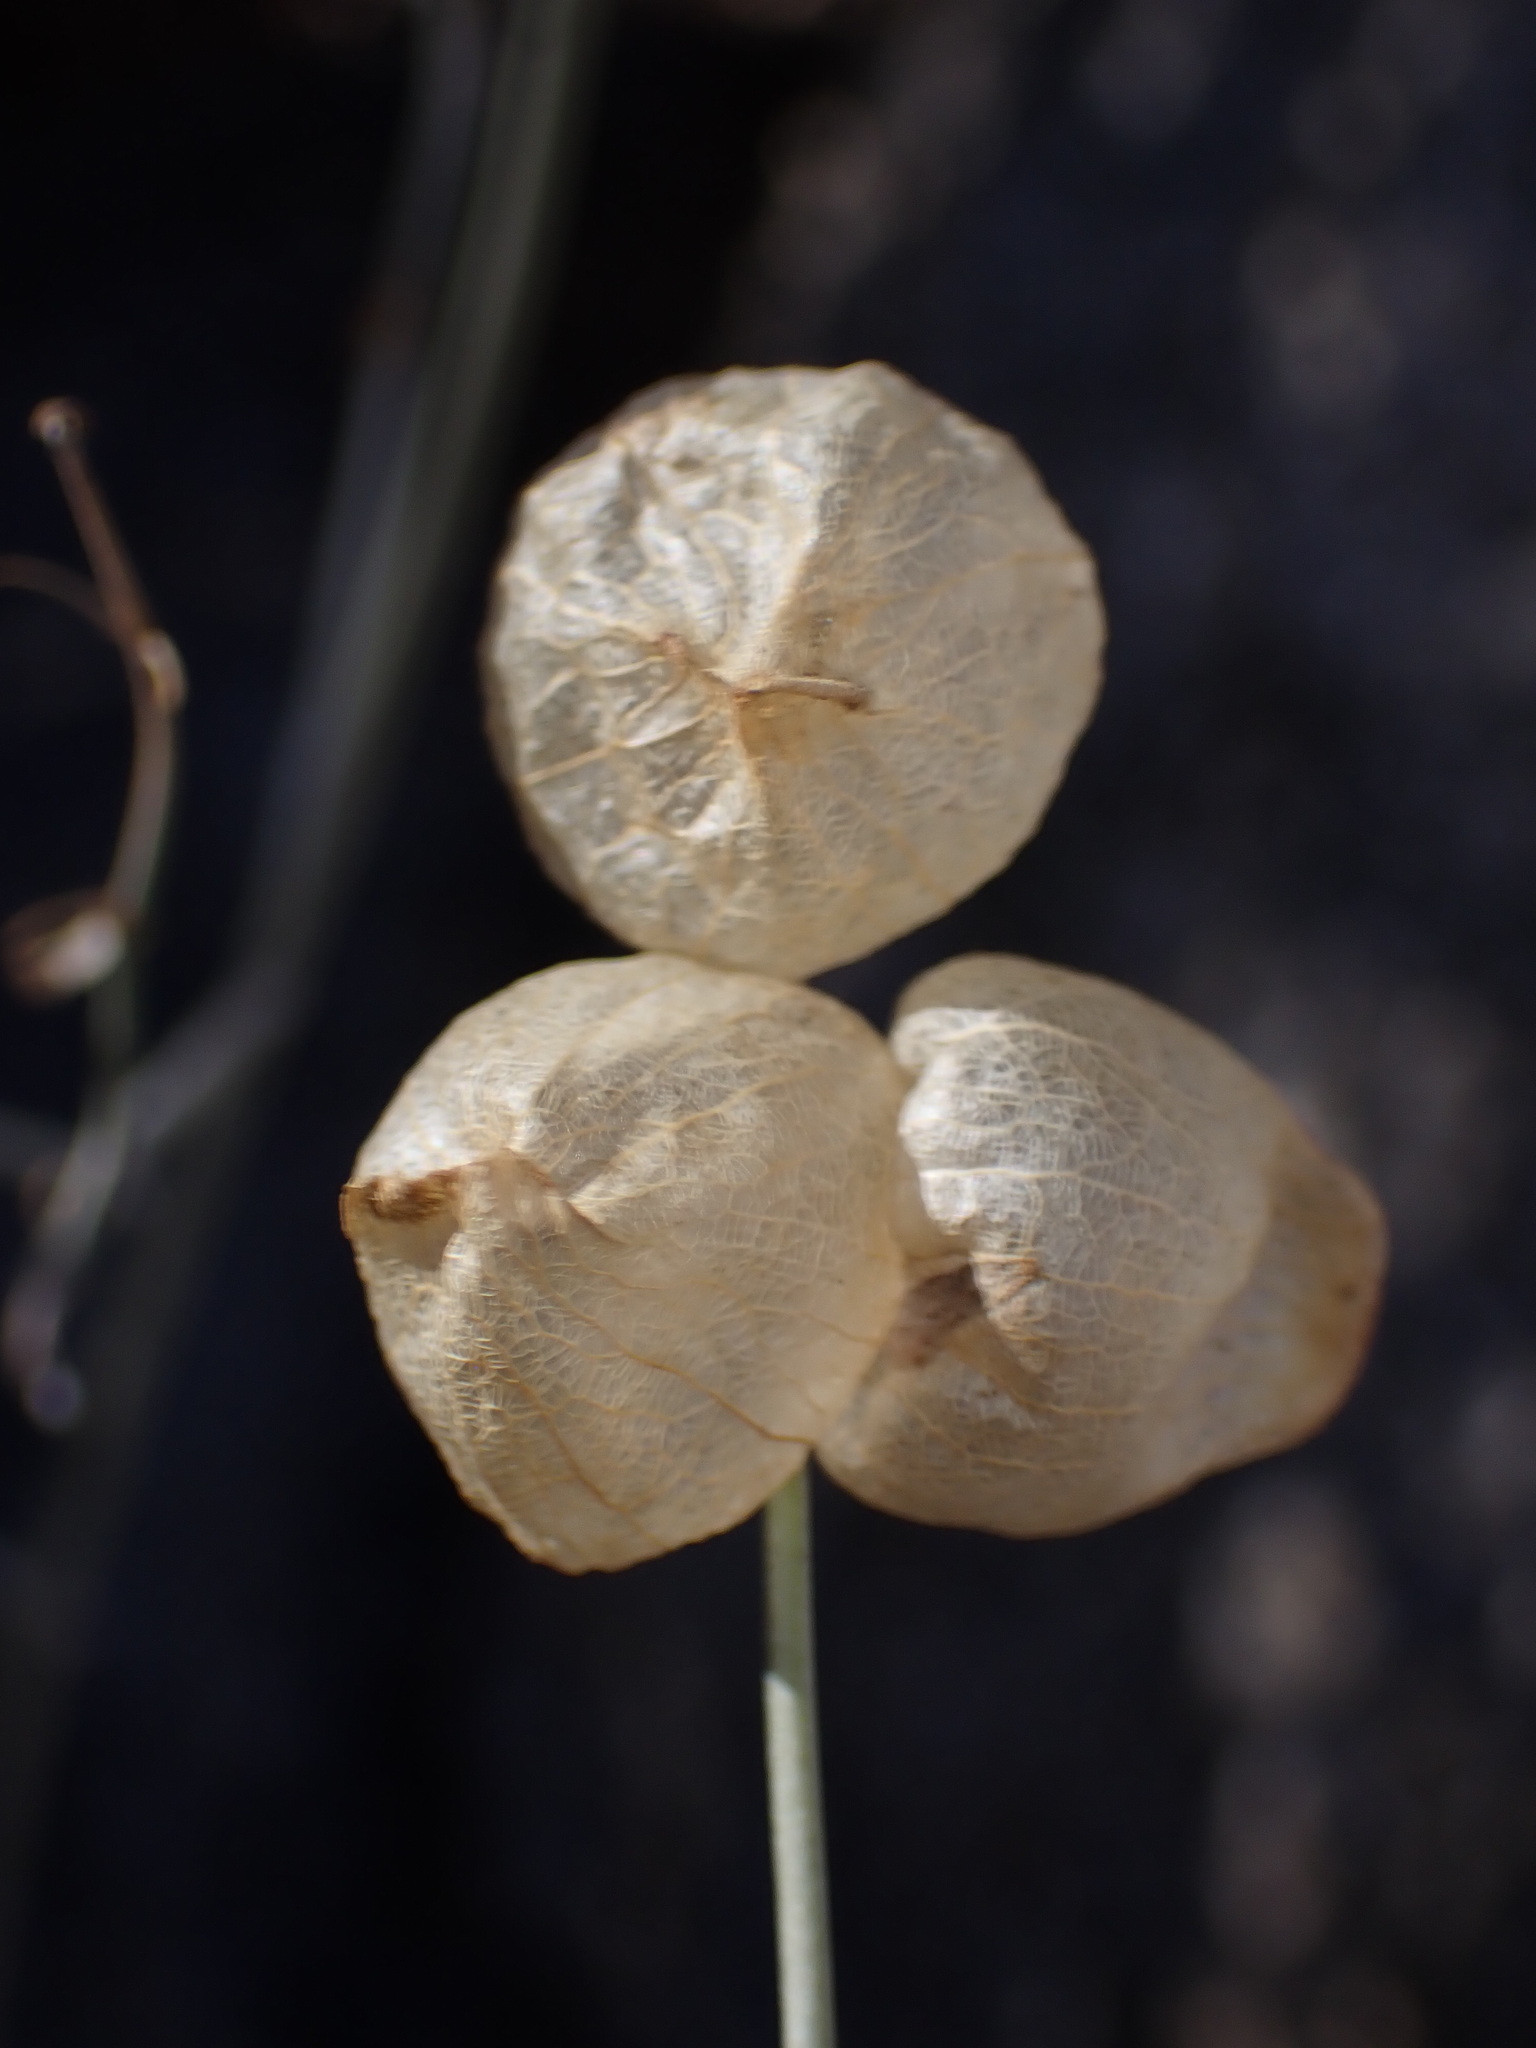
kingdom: Plantae
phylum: Tracheophyta
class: Magnoliopsida
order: Lamiales
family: Lamiaceae
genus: Scutellaria
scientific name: Scutellaria mexicana
